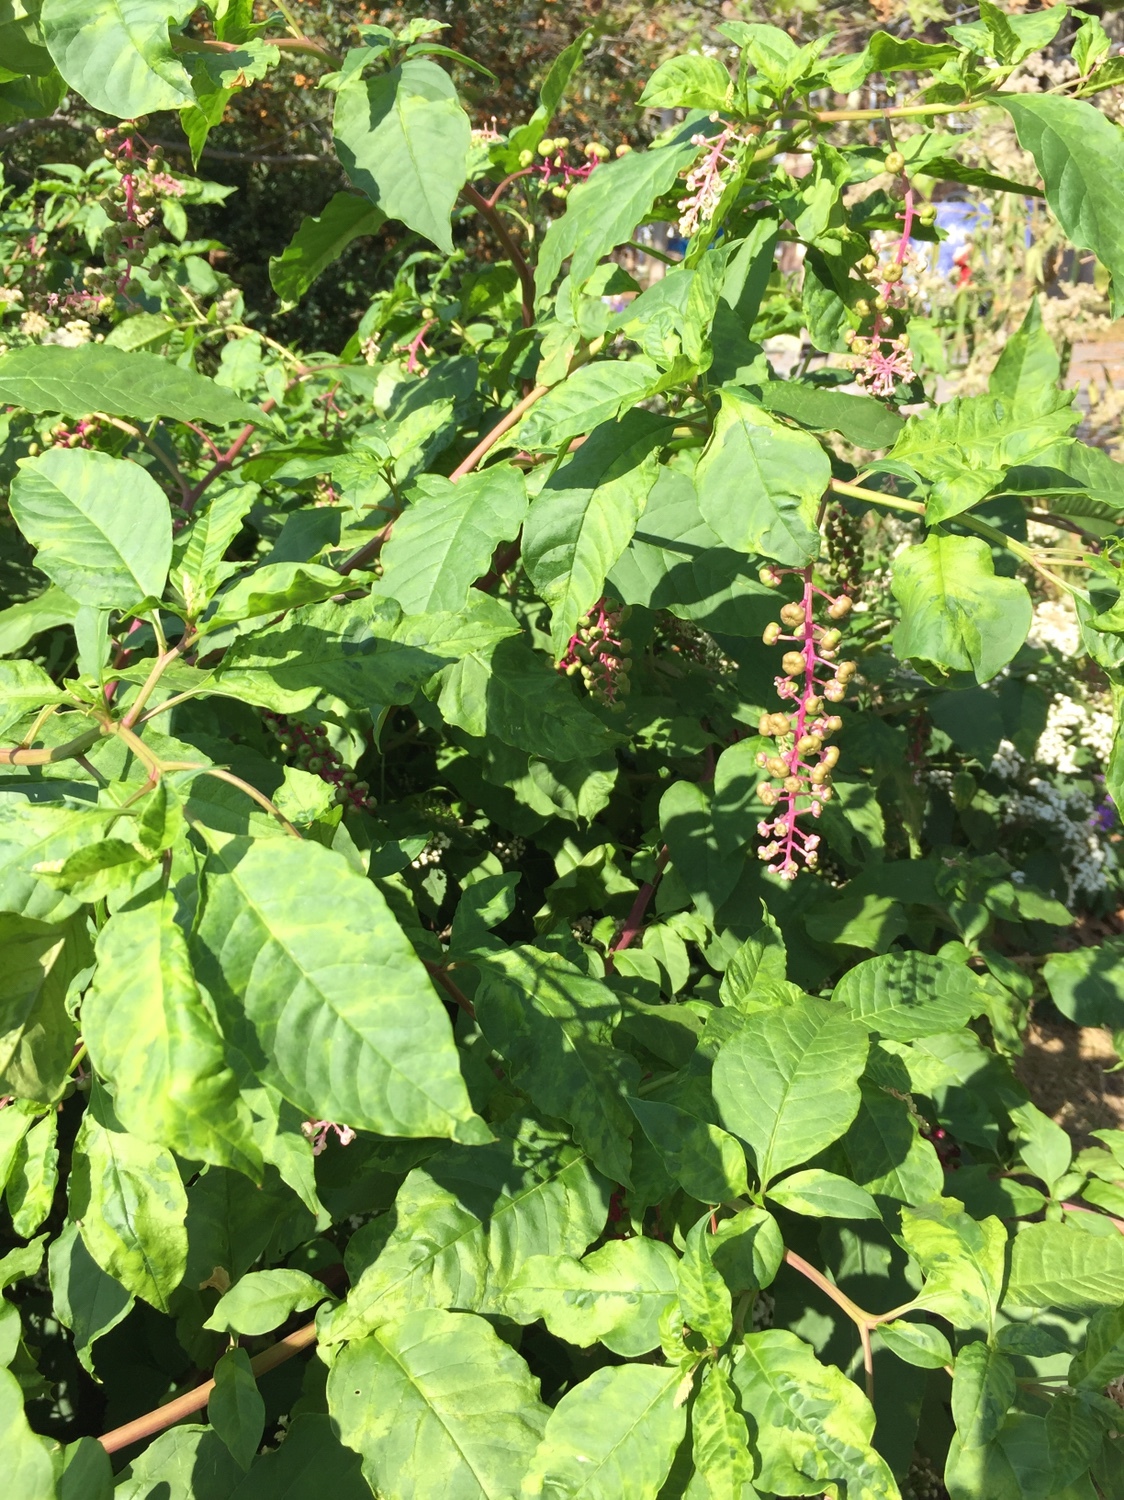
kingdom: Plantae
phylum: Tracheophyta
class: Magnoliopsida
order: Caryophyllales
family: Phytolaccaceae
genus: Phytolacca
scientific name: Phytolacca americana
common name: American pokeweed
